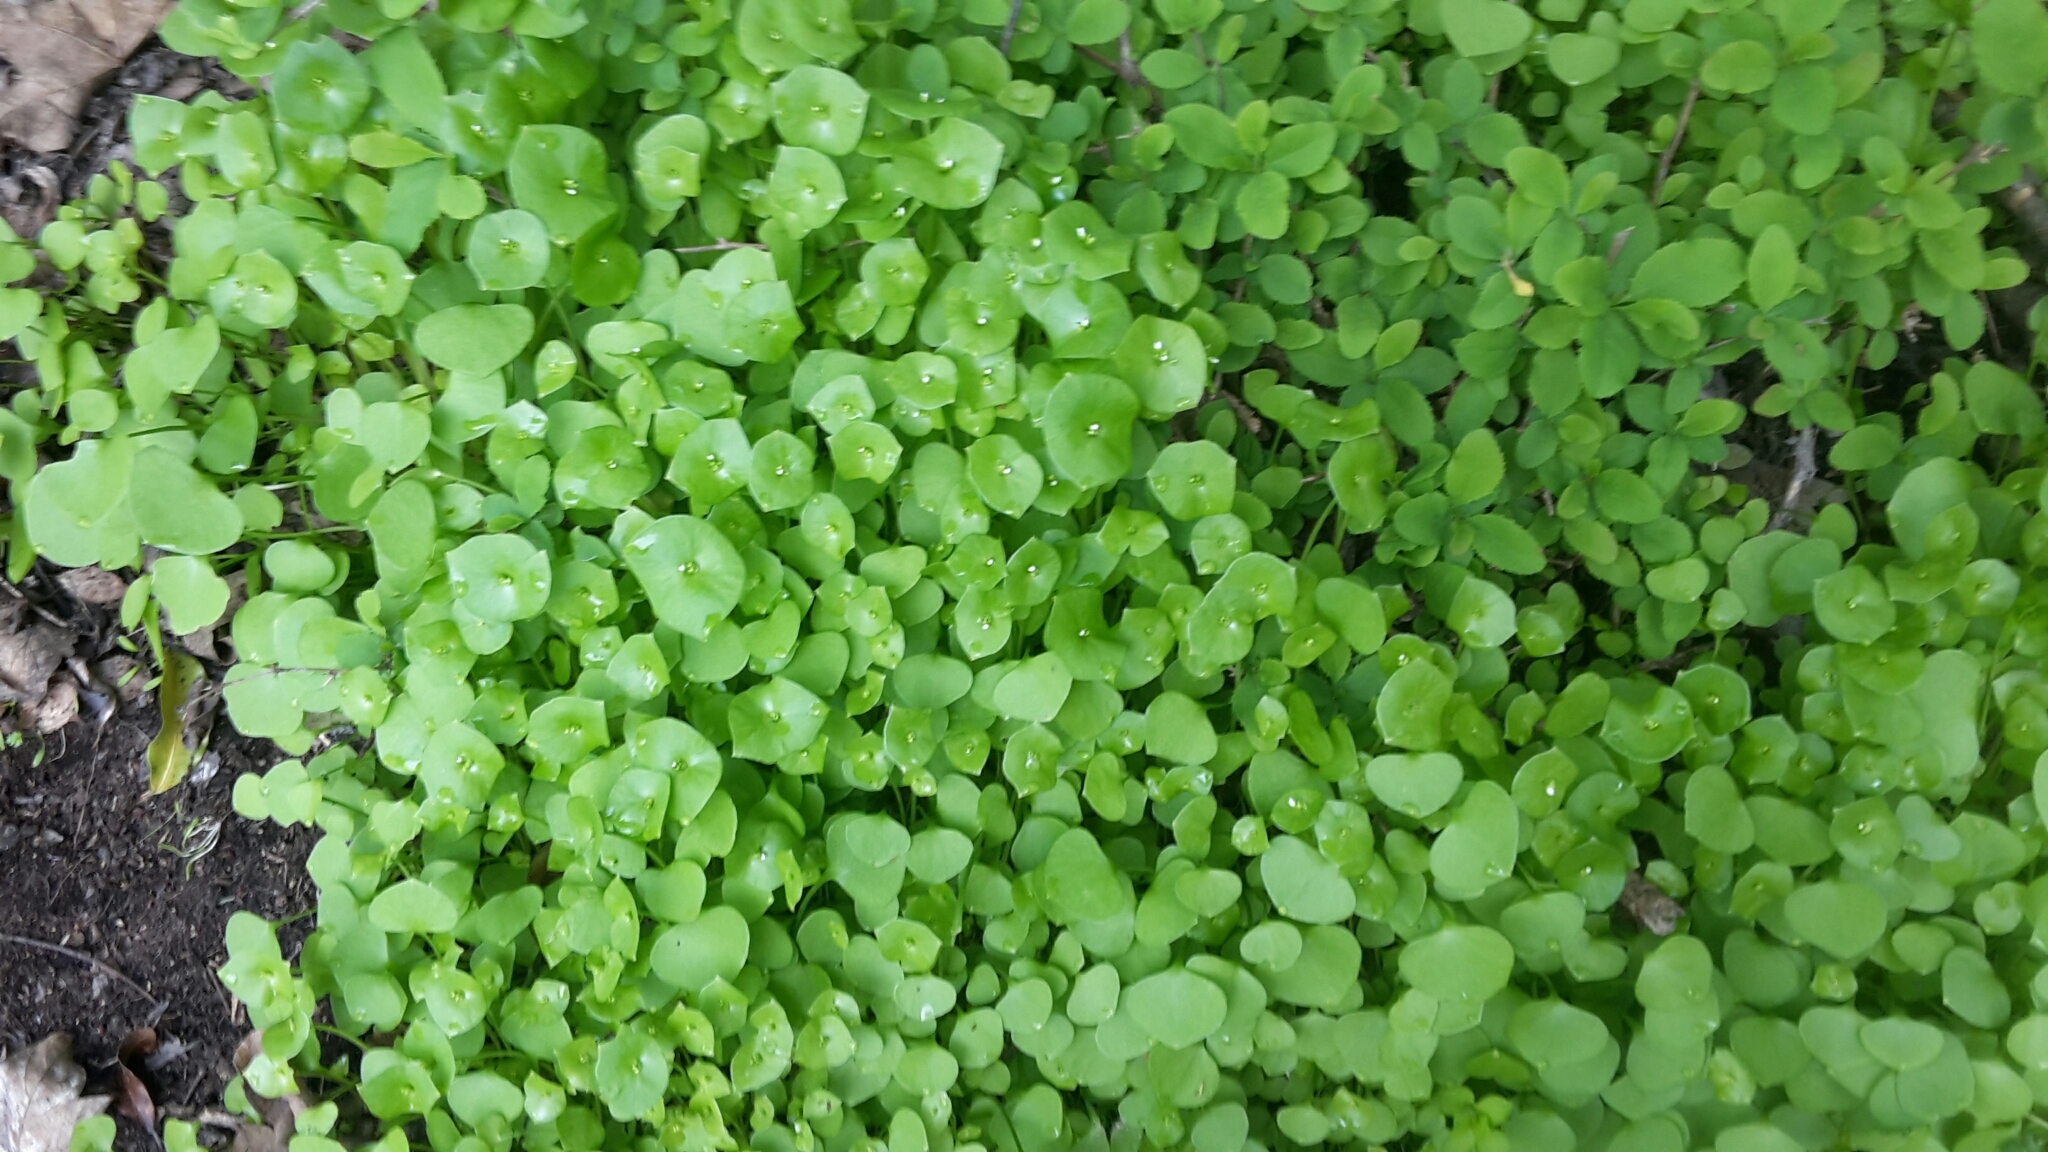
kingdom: Plantae
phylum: Tracheophyta
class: Magnoliopsida
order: Caryophyllales
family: Montiaceae
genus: Claytonia
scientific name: Claytonia perfoliata
